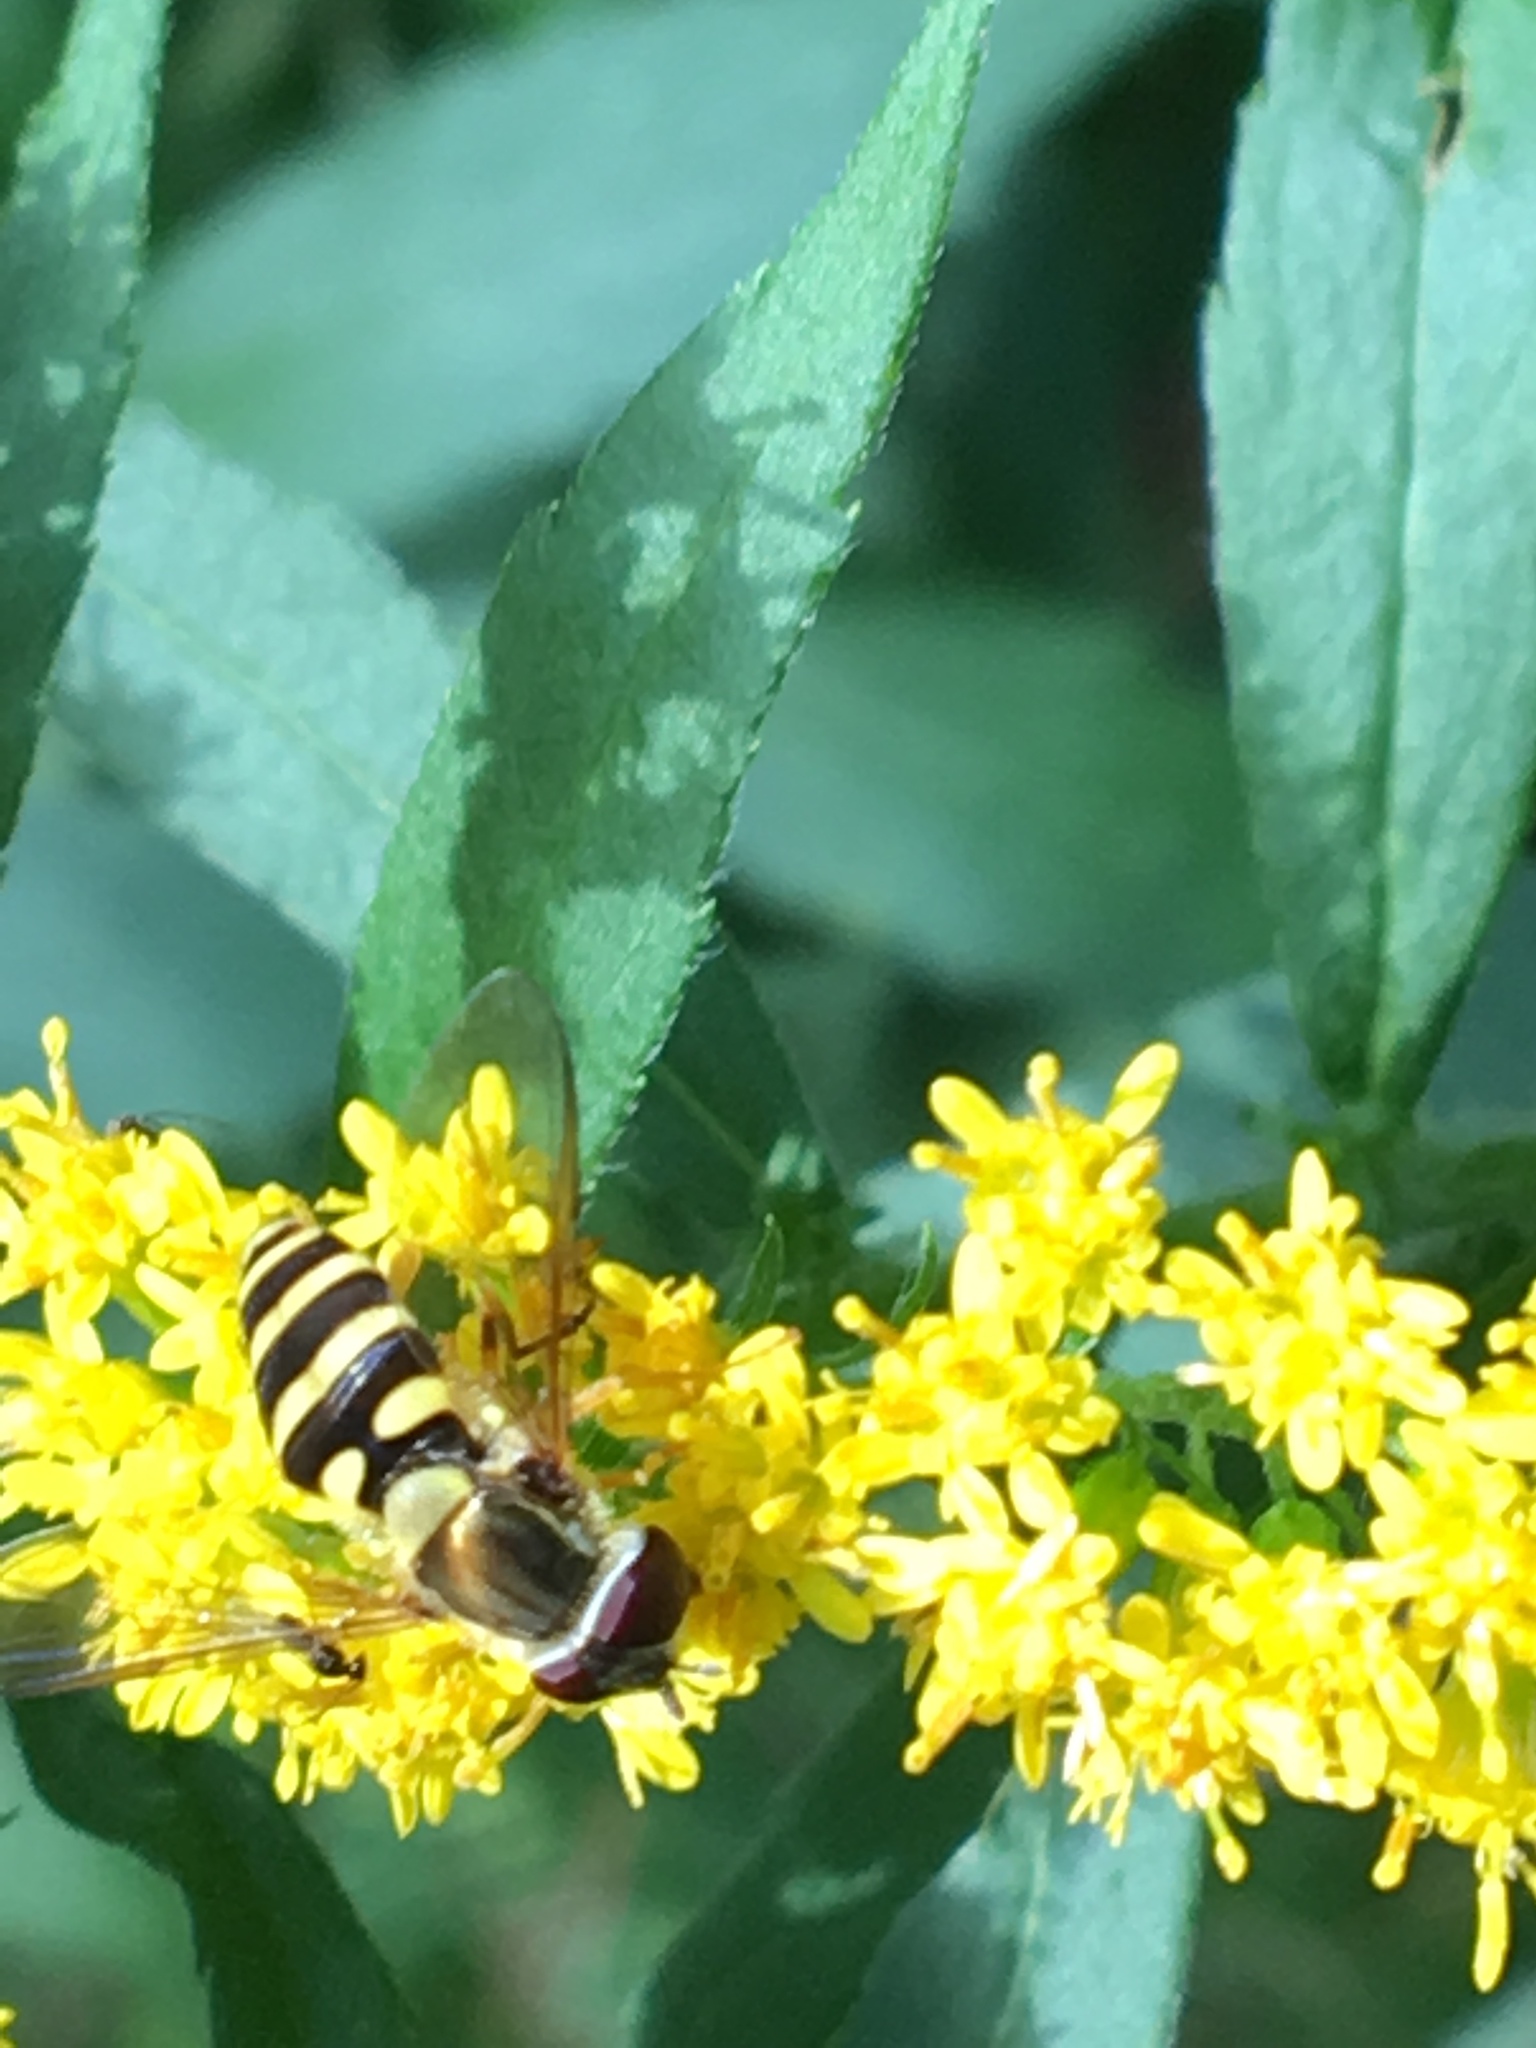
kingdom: Animalia
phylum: Arthropoda
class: Insecta
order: Diptera
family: Syrphidae
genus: Syrphus
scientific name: Syrphus rectus
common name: Yellow-legged flower fly
